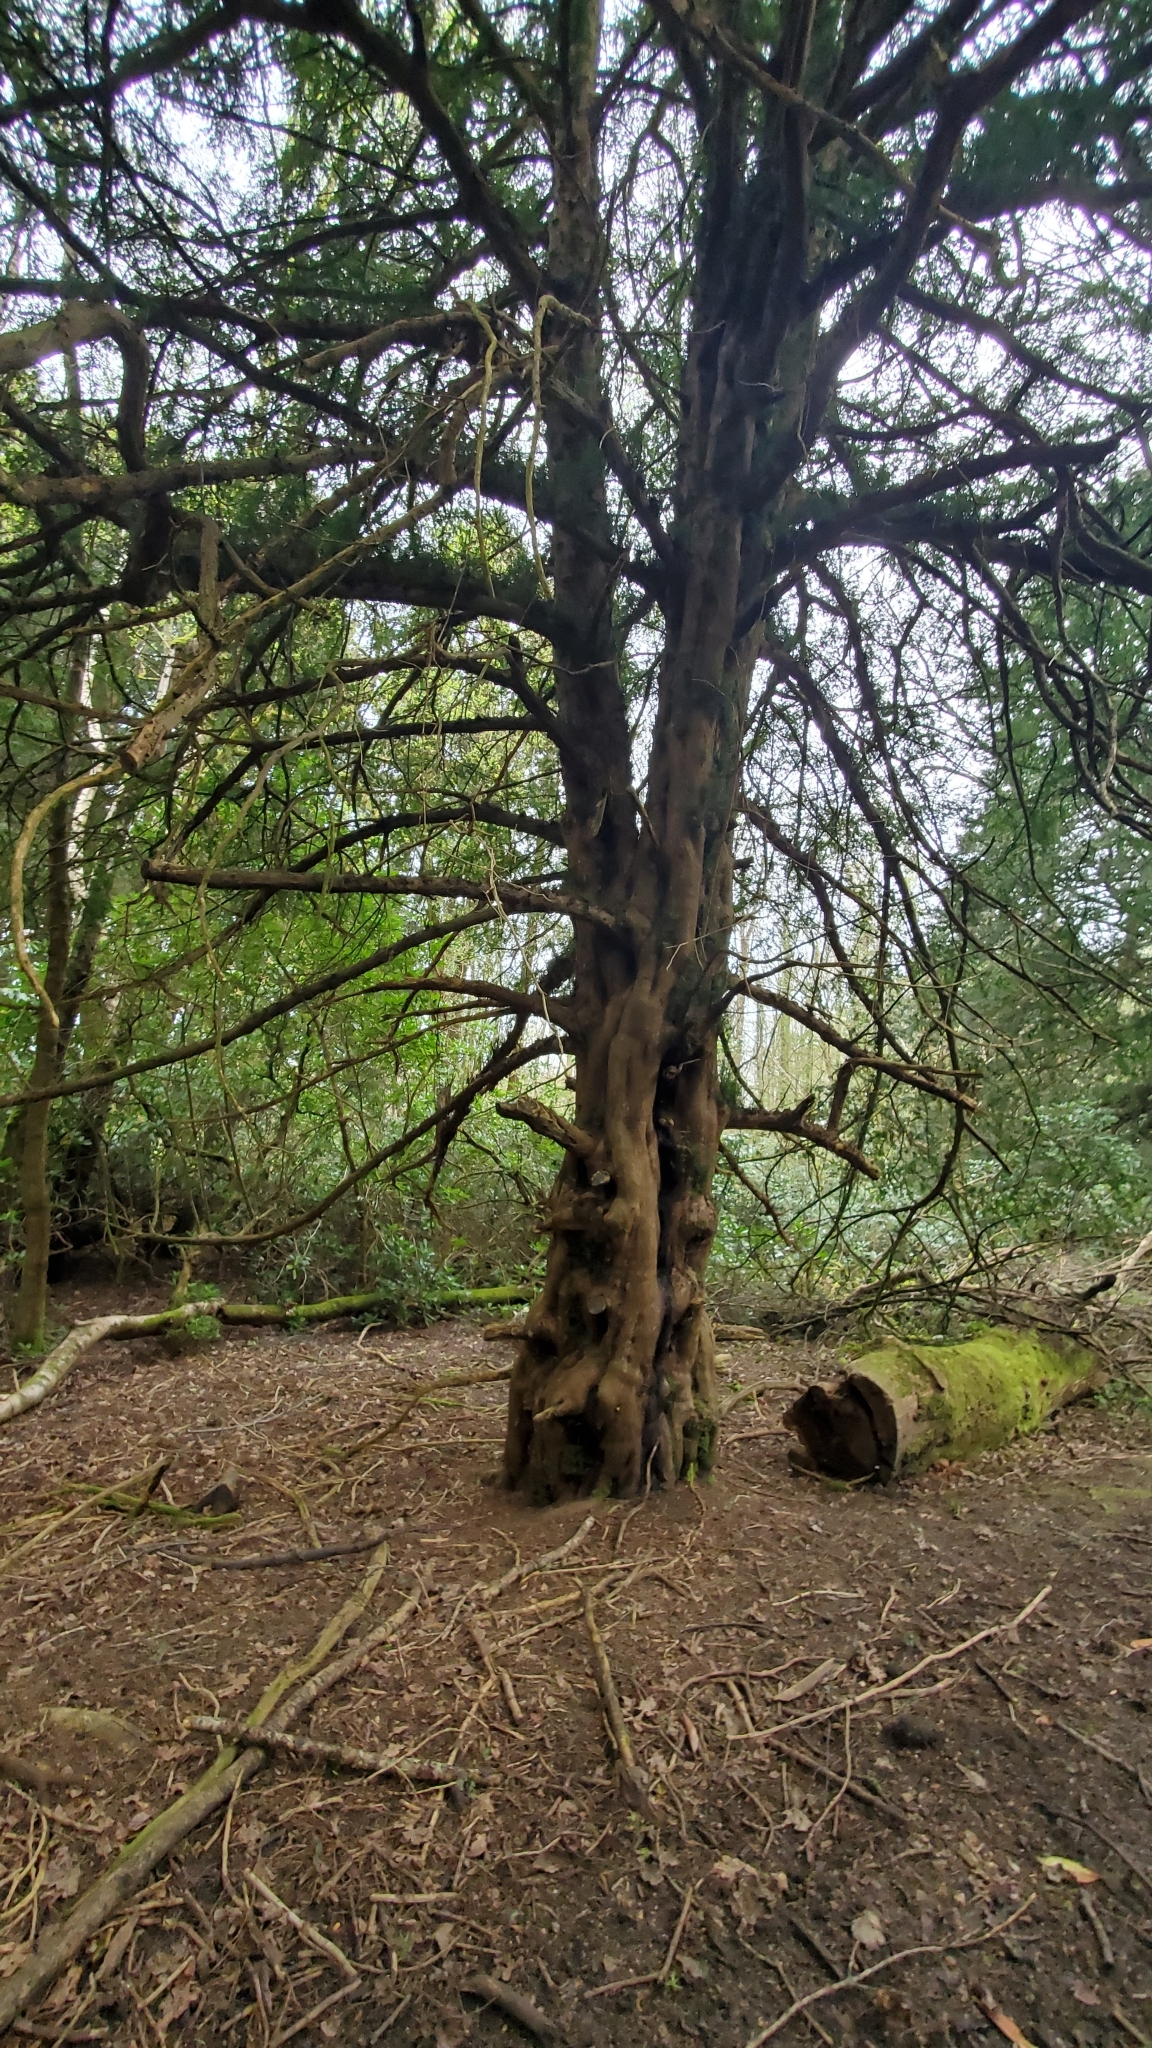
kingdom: Plantae
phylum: Tracheophyta
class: Pinopsida
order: Pinales
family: Taxaceae
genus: Taxus
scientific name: Taxus baccata
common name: Yew
